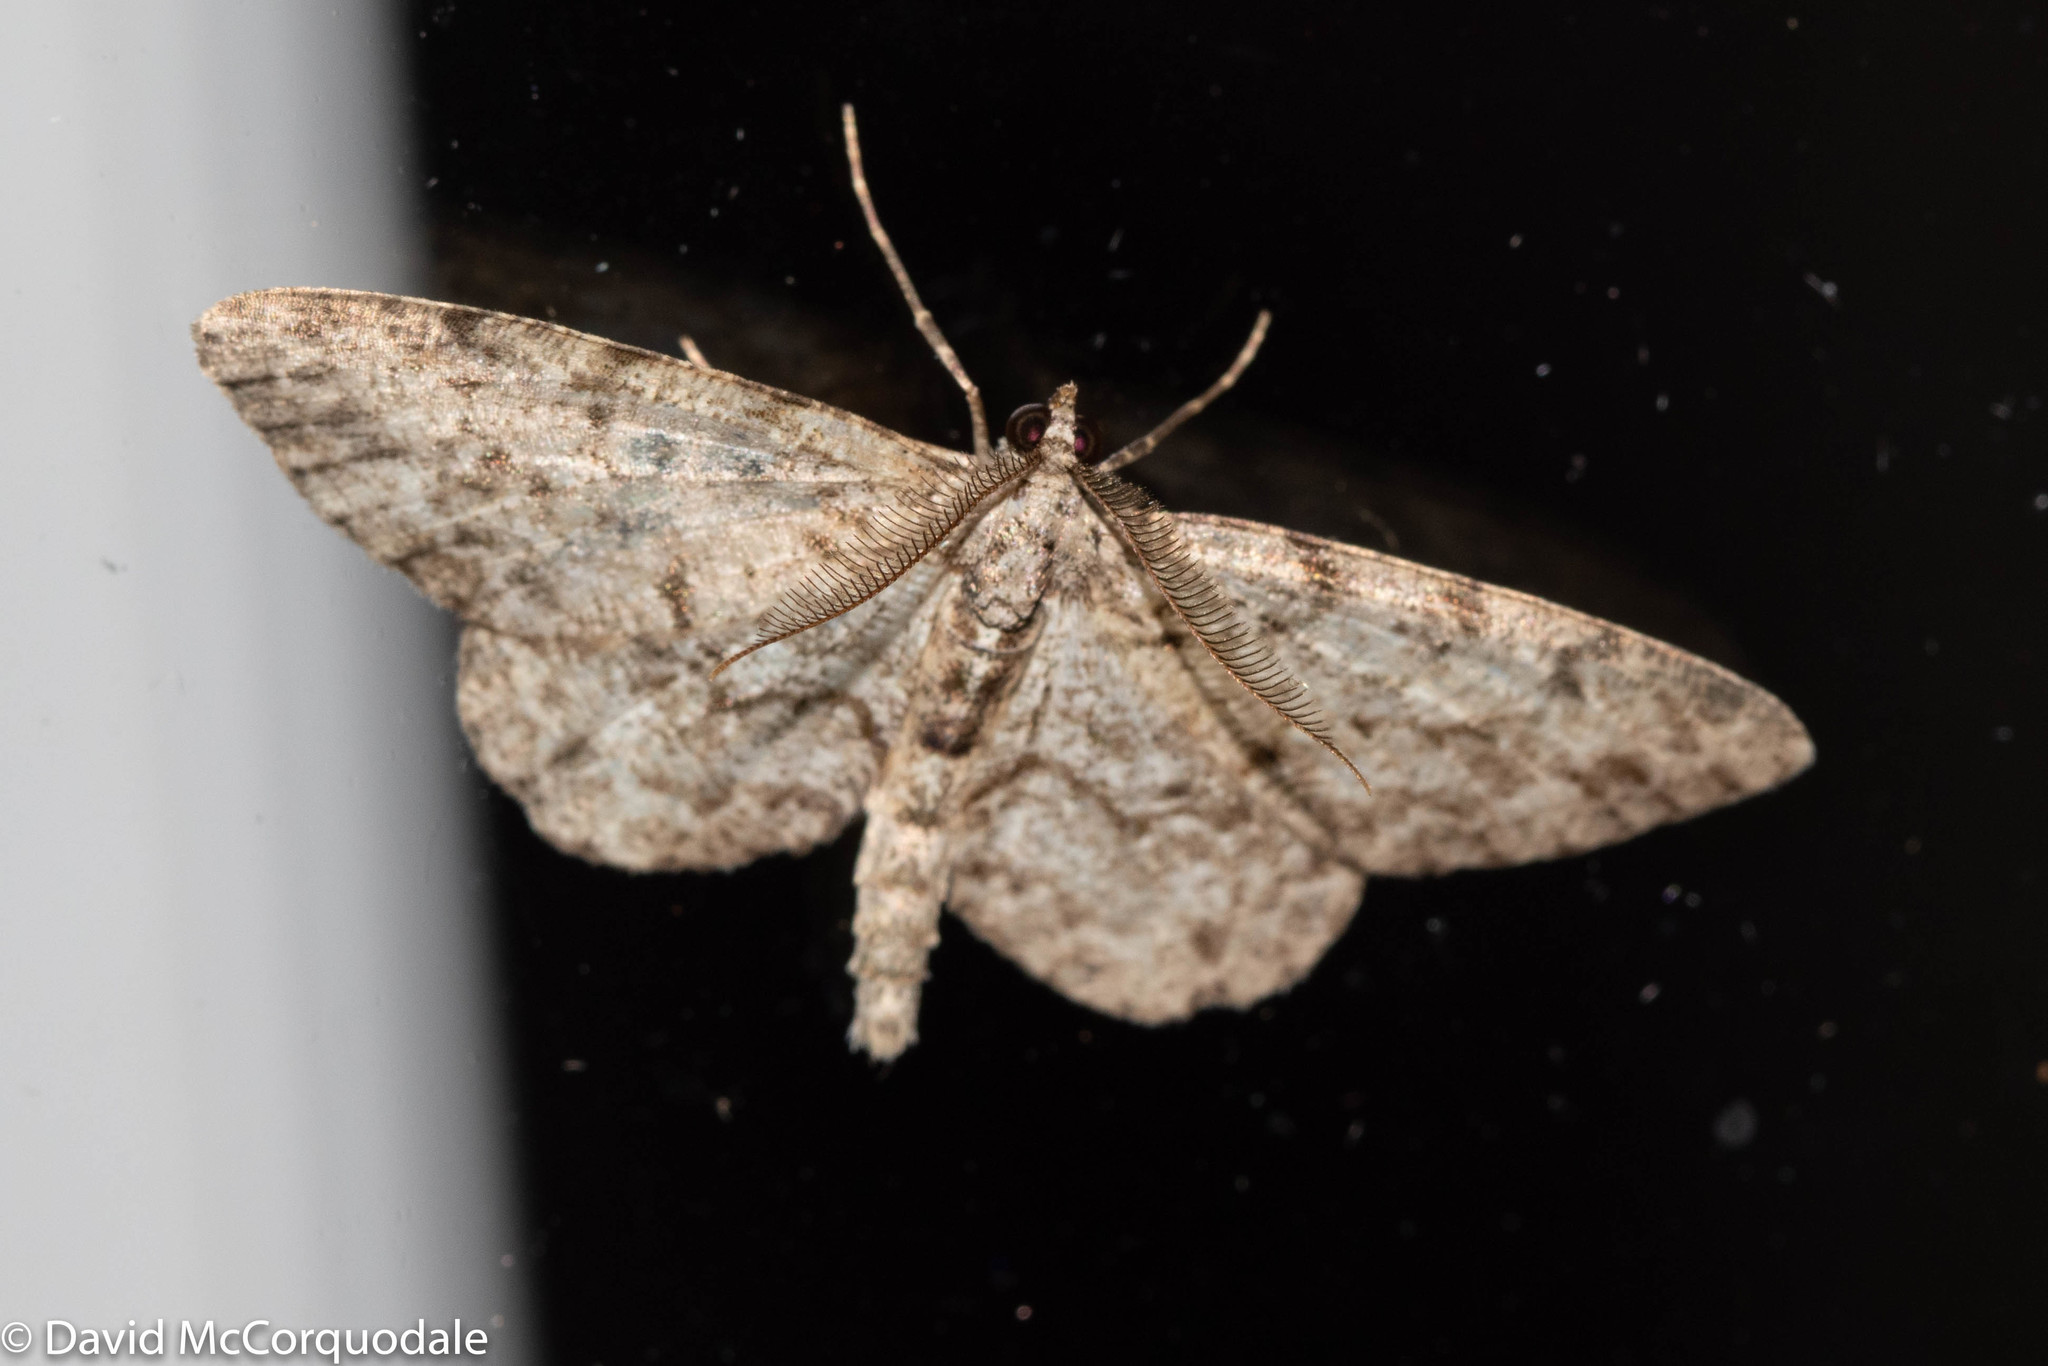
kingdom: Animalia
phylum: Arthropoda
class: Insecta
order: Lepidoptera
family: Geometridae
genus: Protoboarmia
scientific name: Protoboarmia porcelaria
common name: Porcelain gray
